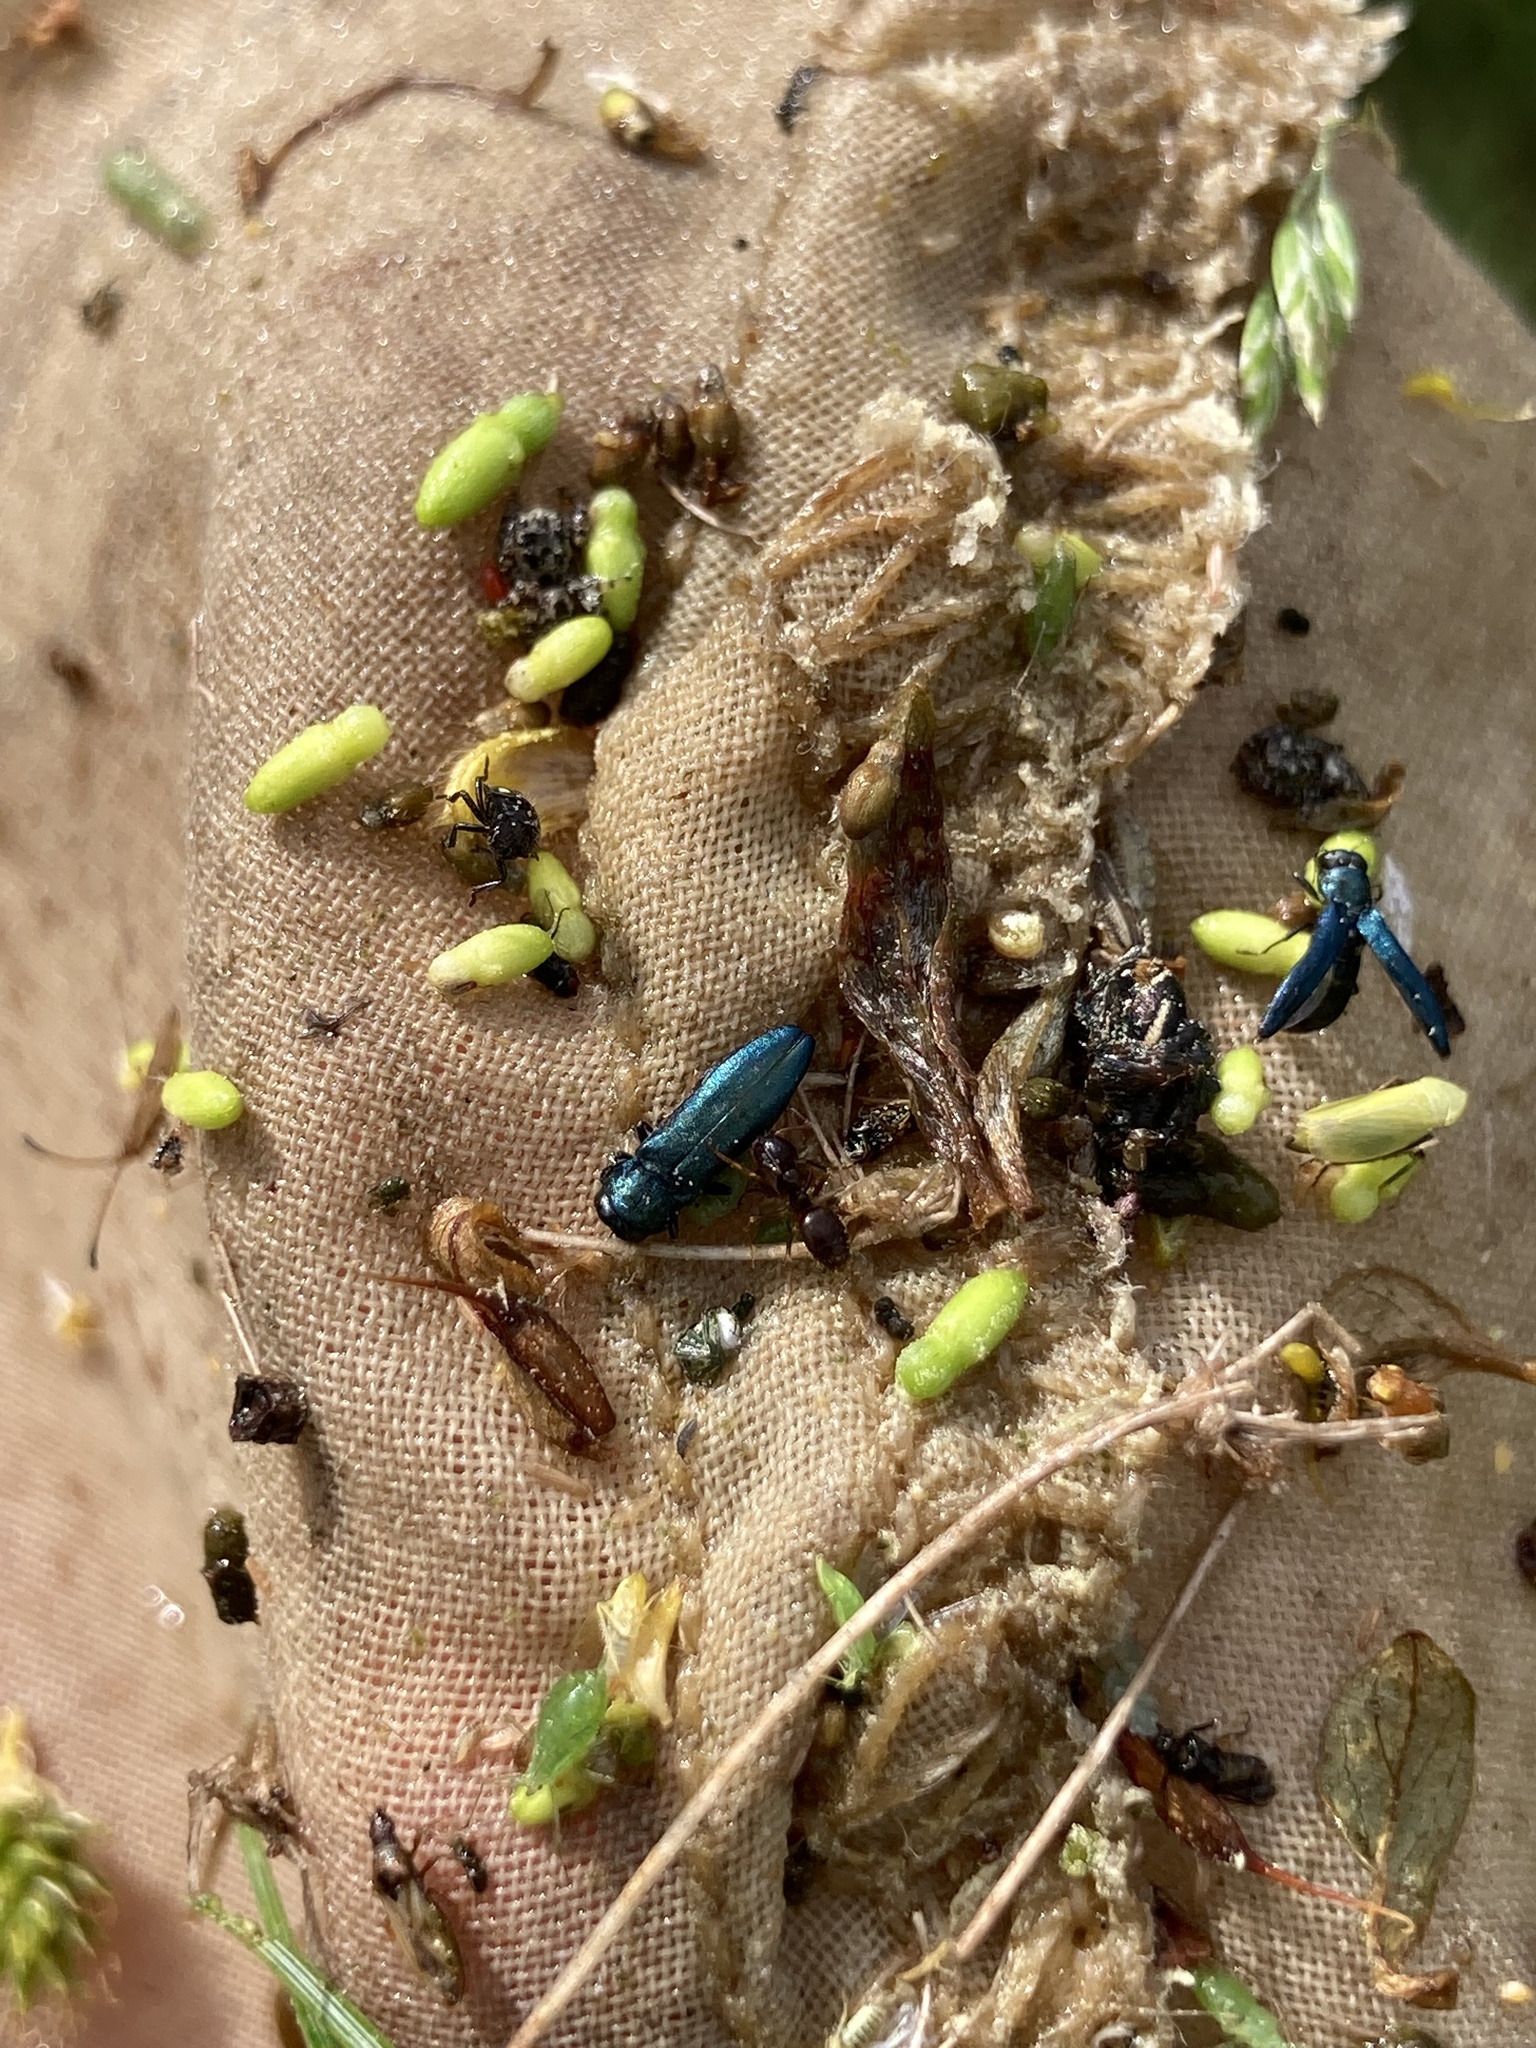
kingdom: Animalia
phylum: Arthropoda
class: Insecta
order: Coleoptera
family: Buprestidae
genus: Agrilus
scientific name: Agrilus cyanescens
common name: Bluish borer beetle
